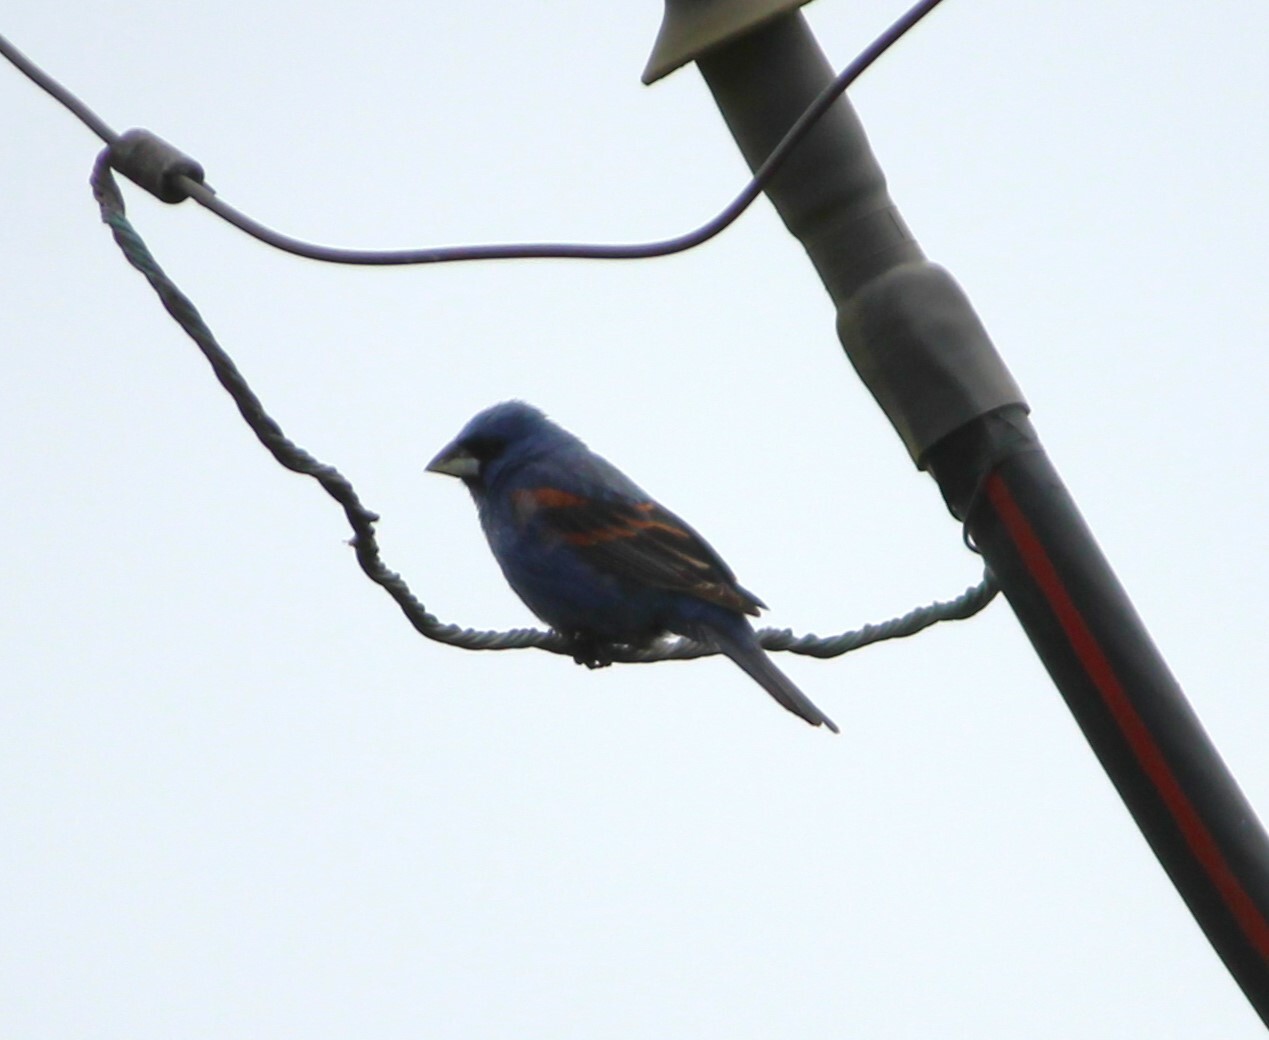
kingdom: Animalia
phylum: Chordata
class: Aves
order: Passeriformes
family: Cardinalidae
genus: Passerina
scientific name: Passerina caerulea
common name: Blue grosbeak
